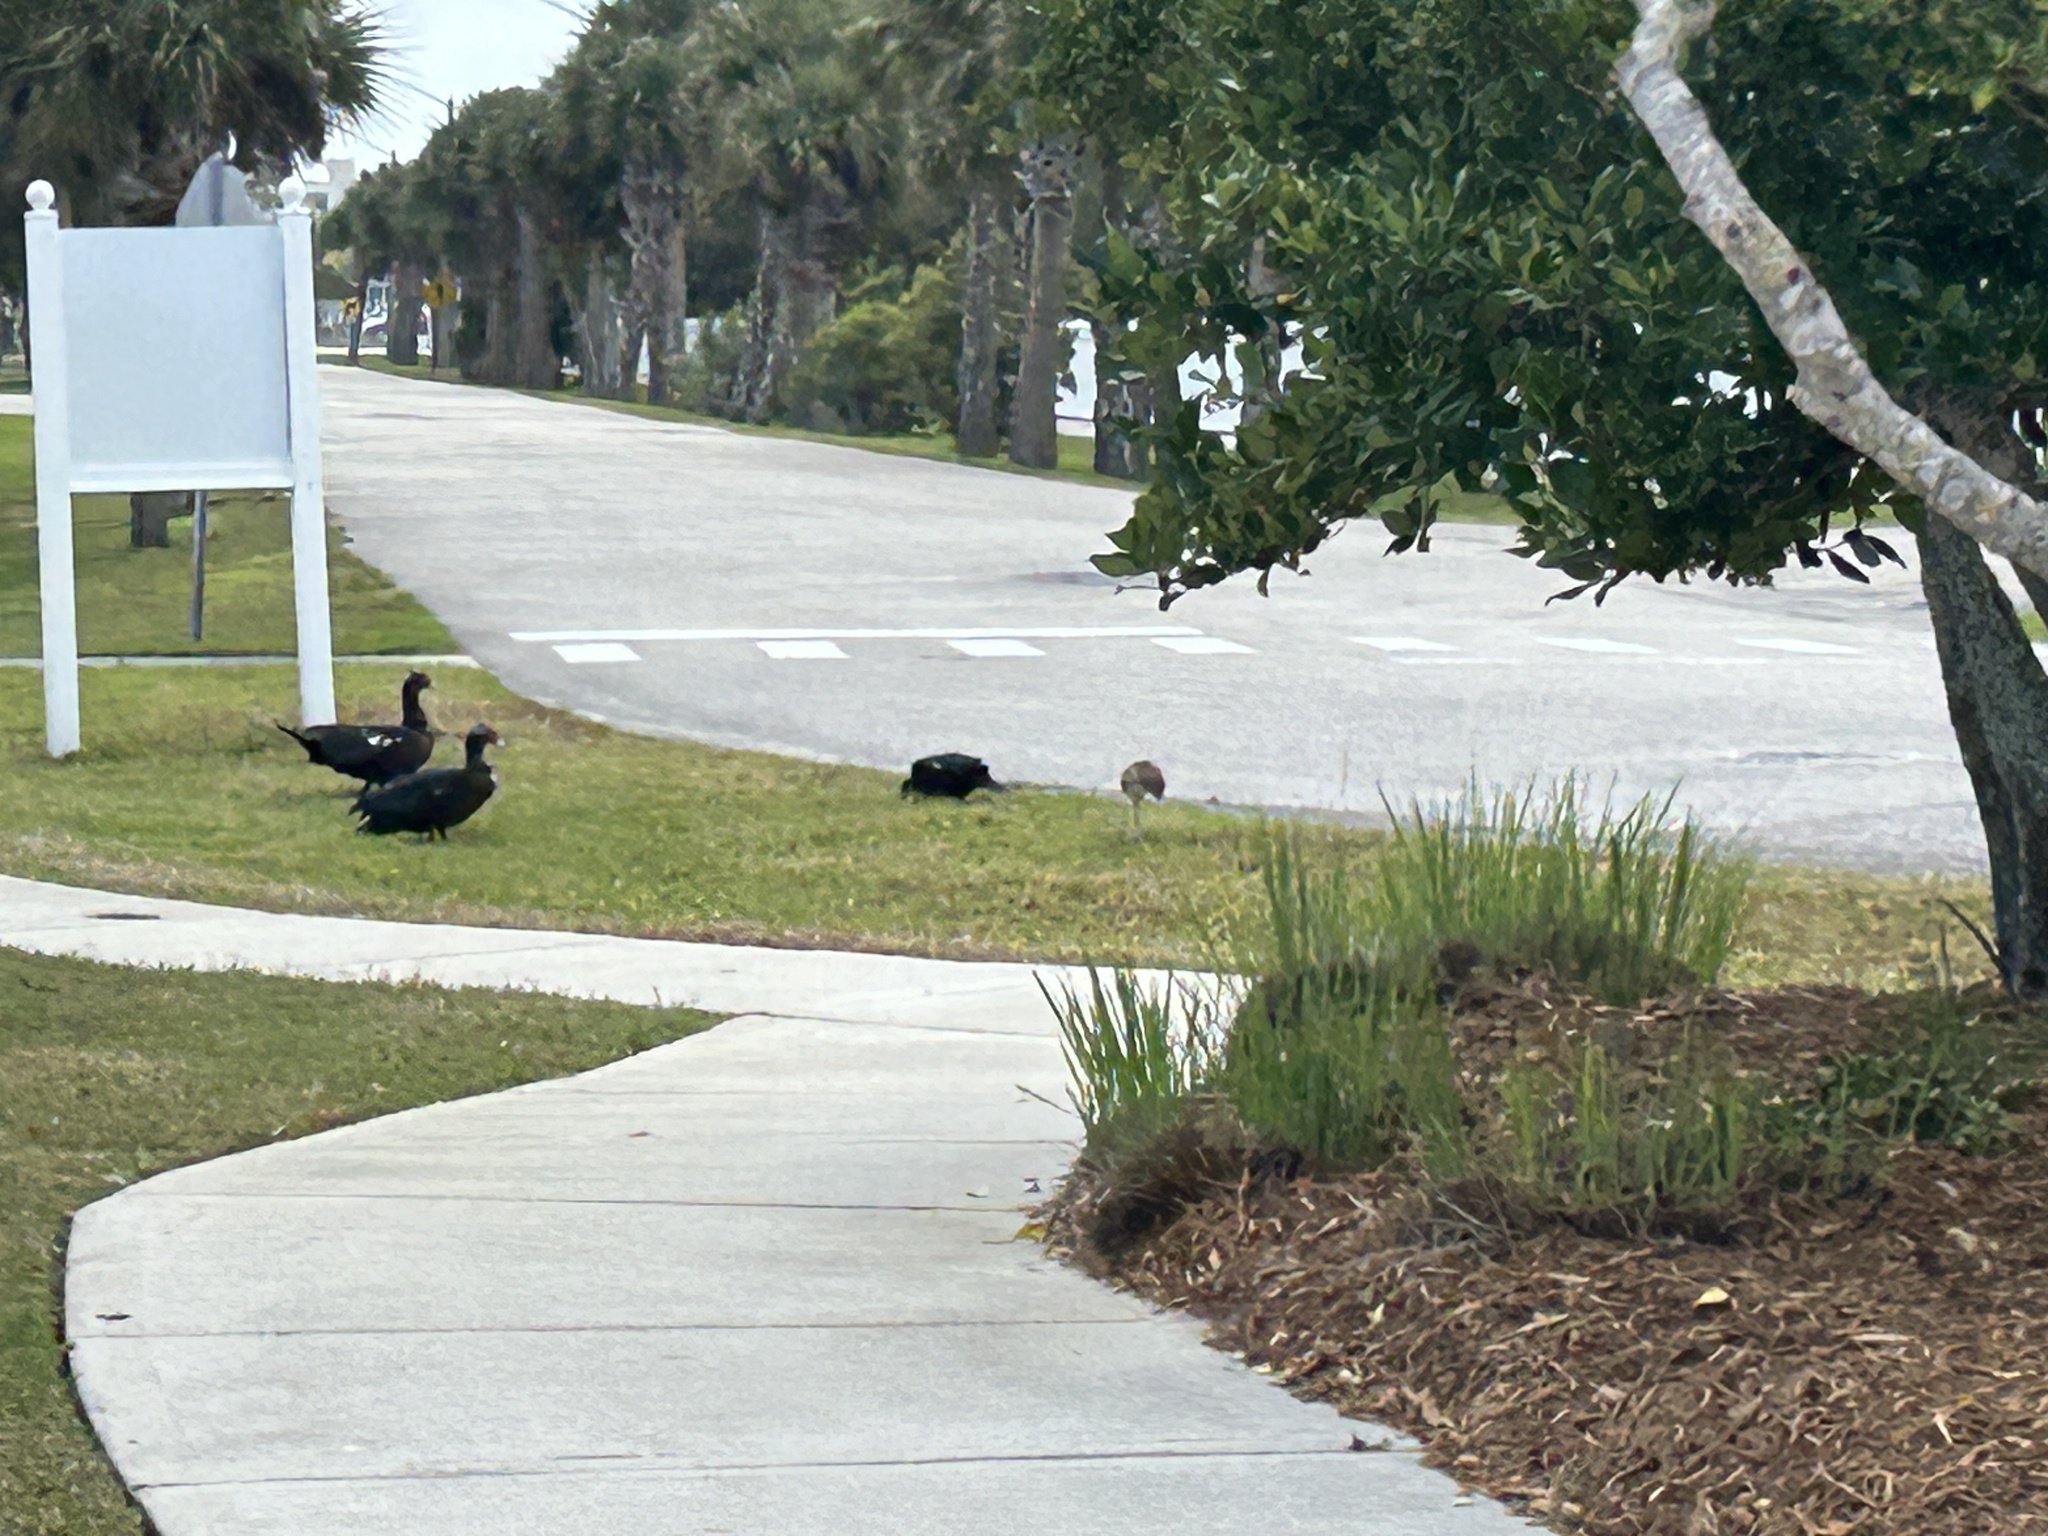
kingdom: Animalia
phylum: Chordata
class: Aves
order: Anseriformes
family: Anatidae
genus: Cairina
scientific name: Cairina moschata
